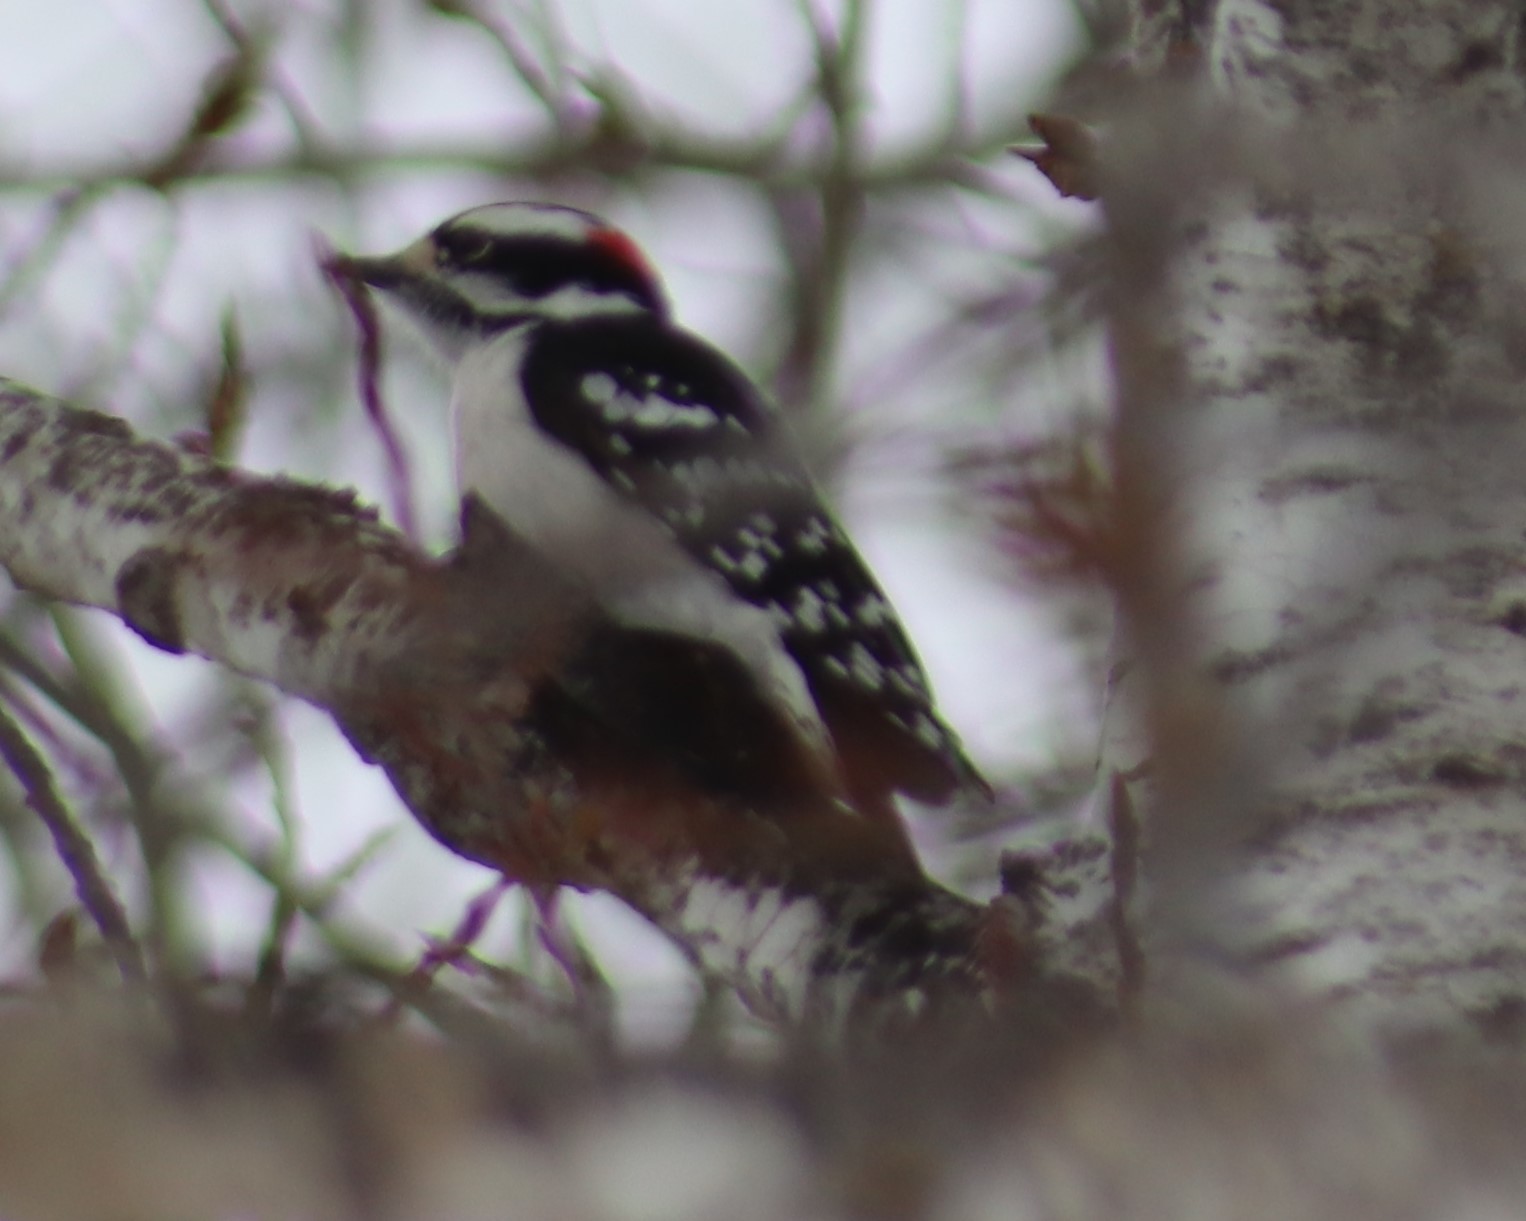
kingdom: Animalia
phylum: Chordata
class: Aves
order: Piciformes
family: Picidae
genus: Dryobates
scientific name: Dryobates pubescens
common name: Downy woodpecker
